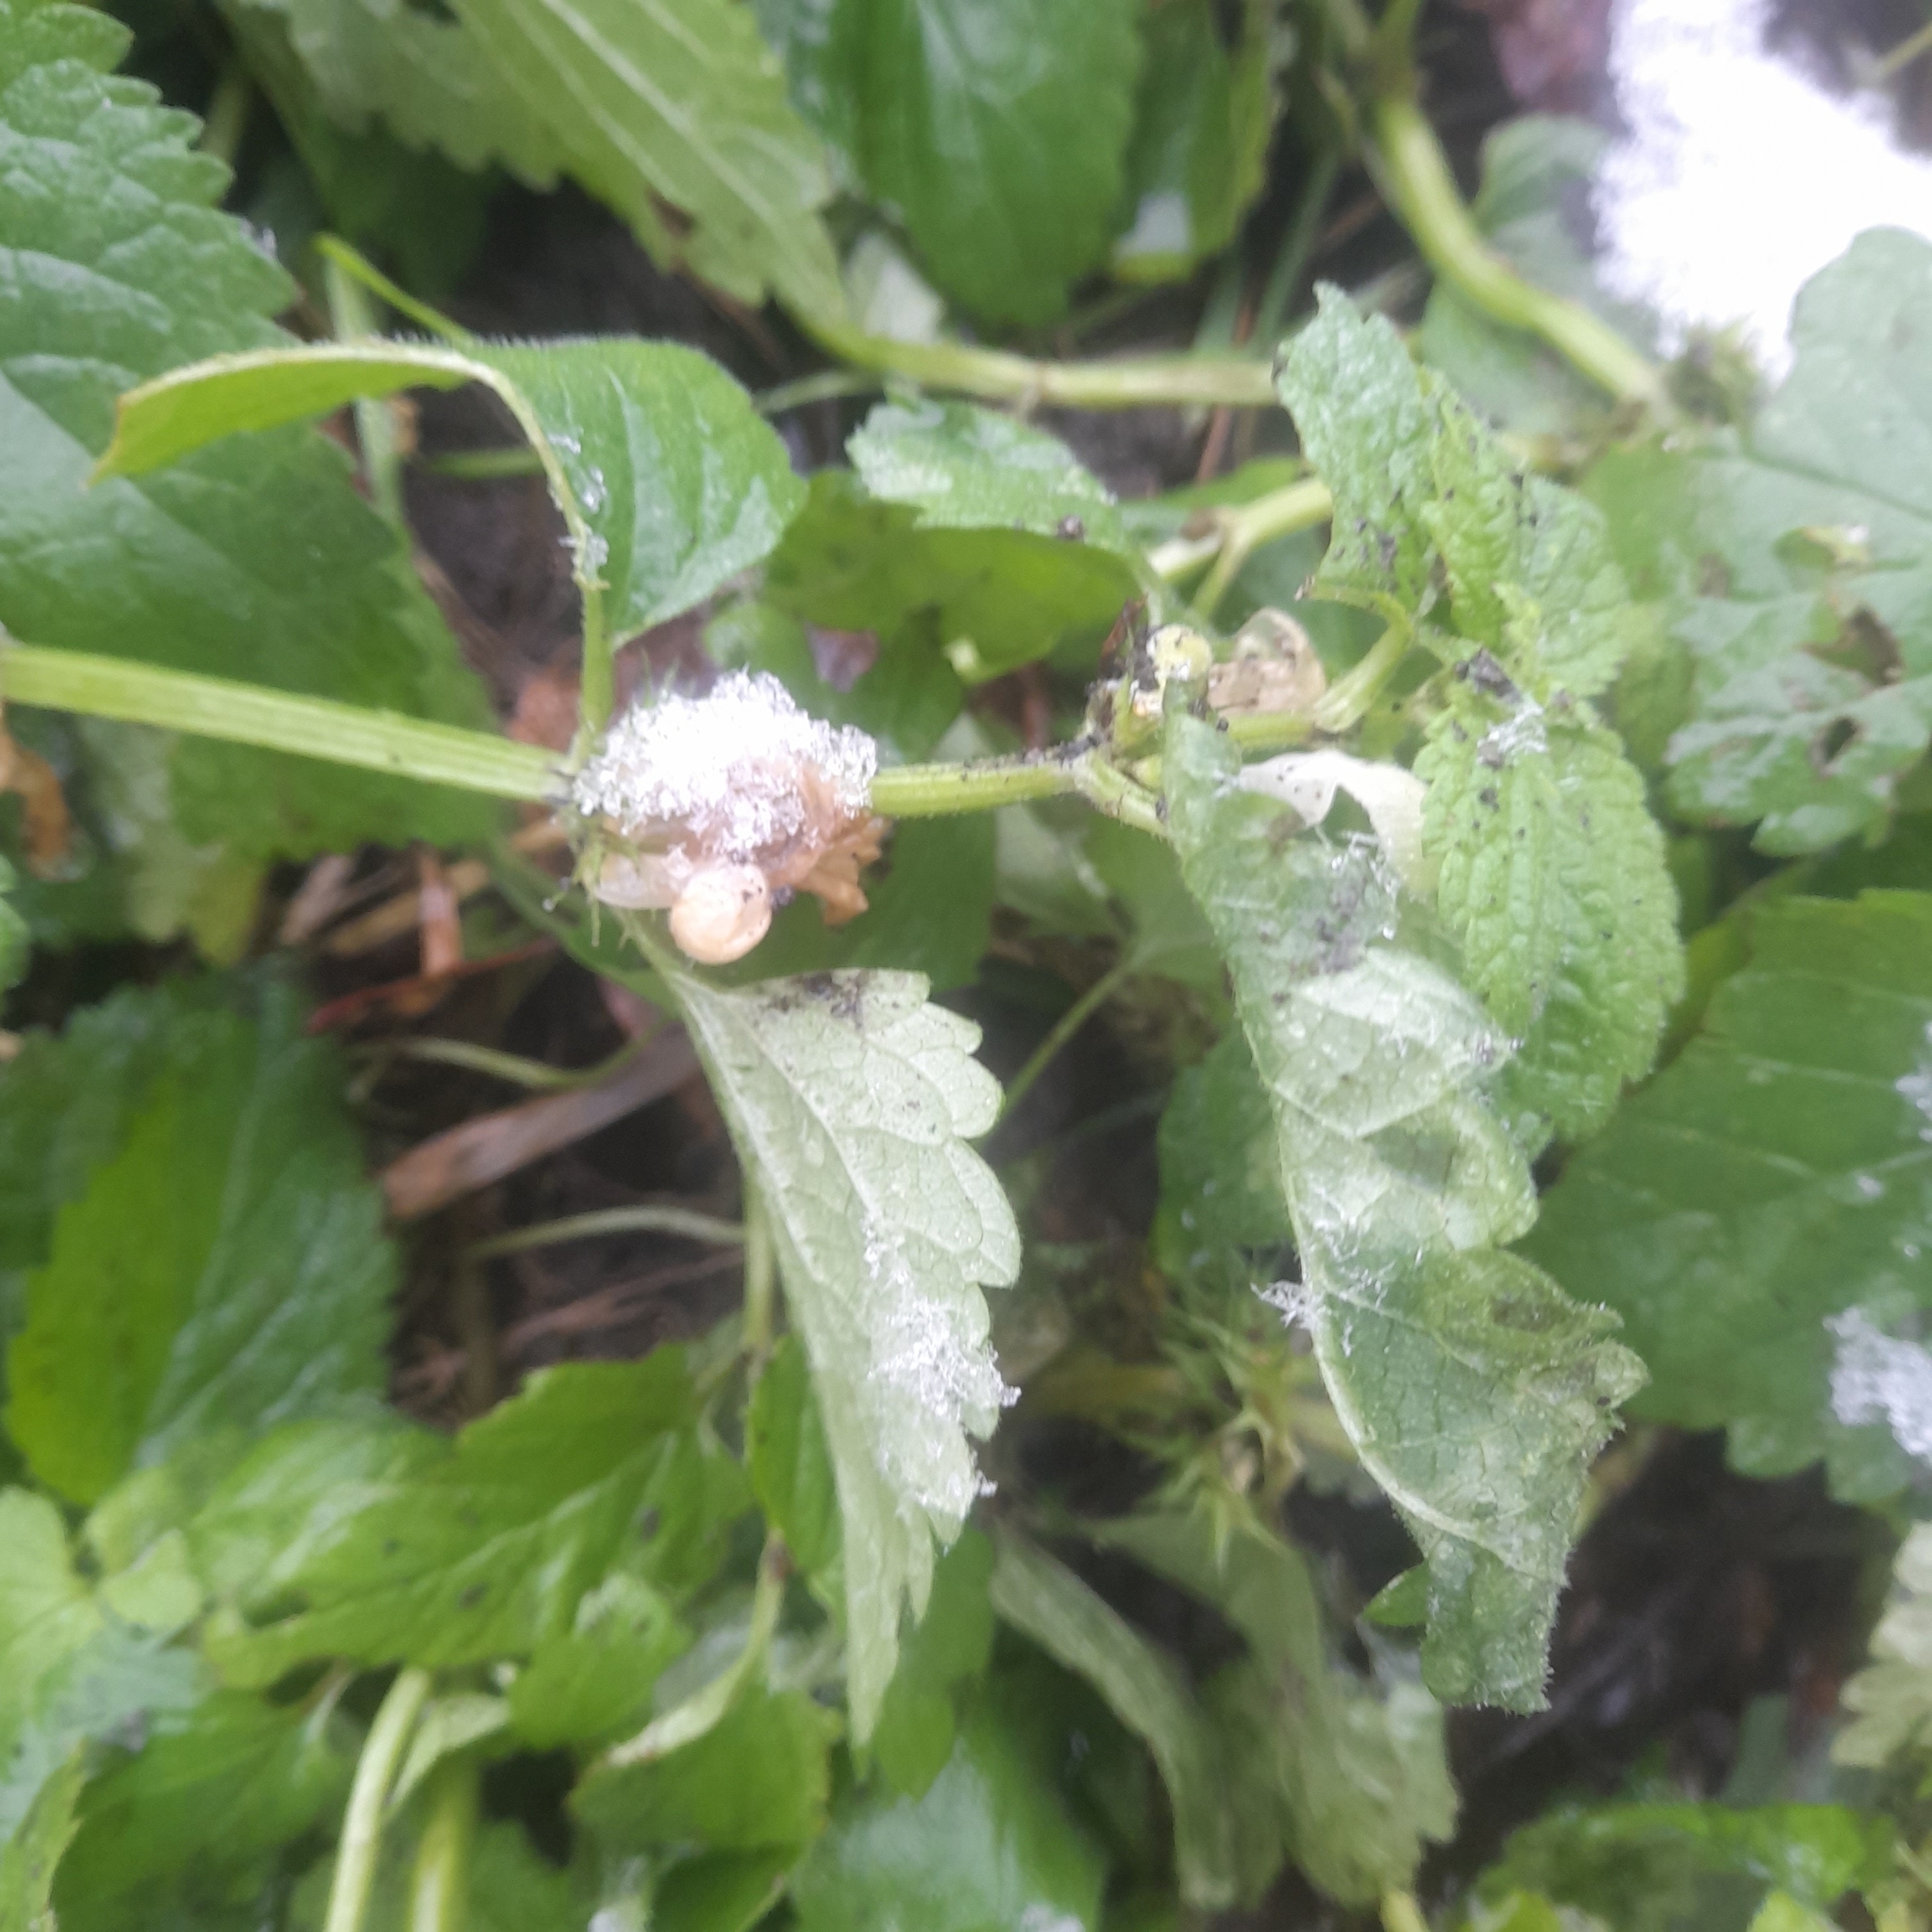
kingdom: Plantae
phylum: Tracheophyta
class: Magnoliopsida
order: Lamiales
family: Lamiaceae
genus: Lamium
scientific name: Lamium album
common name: White dead-nettle
